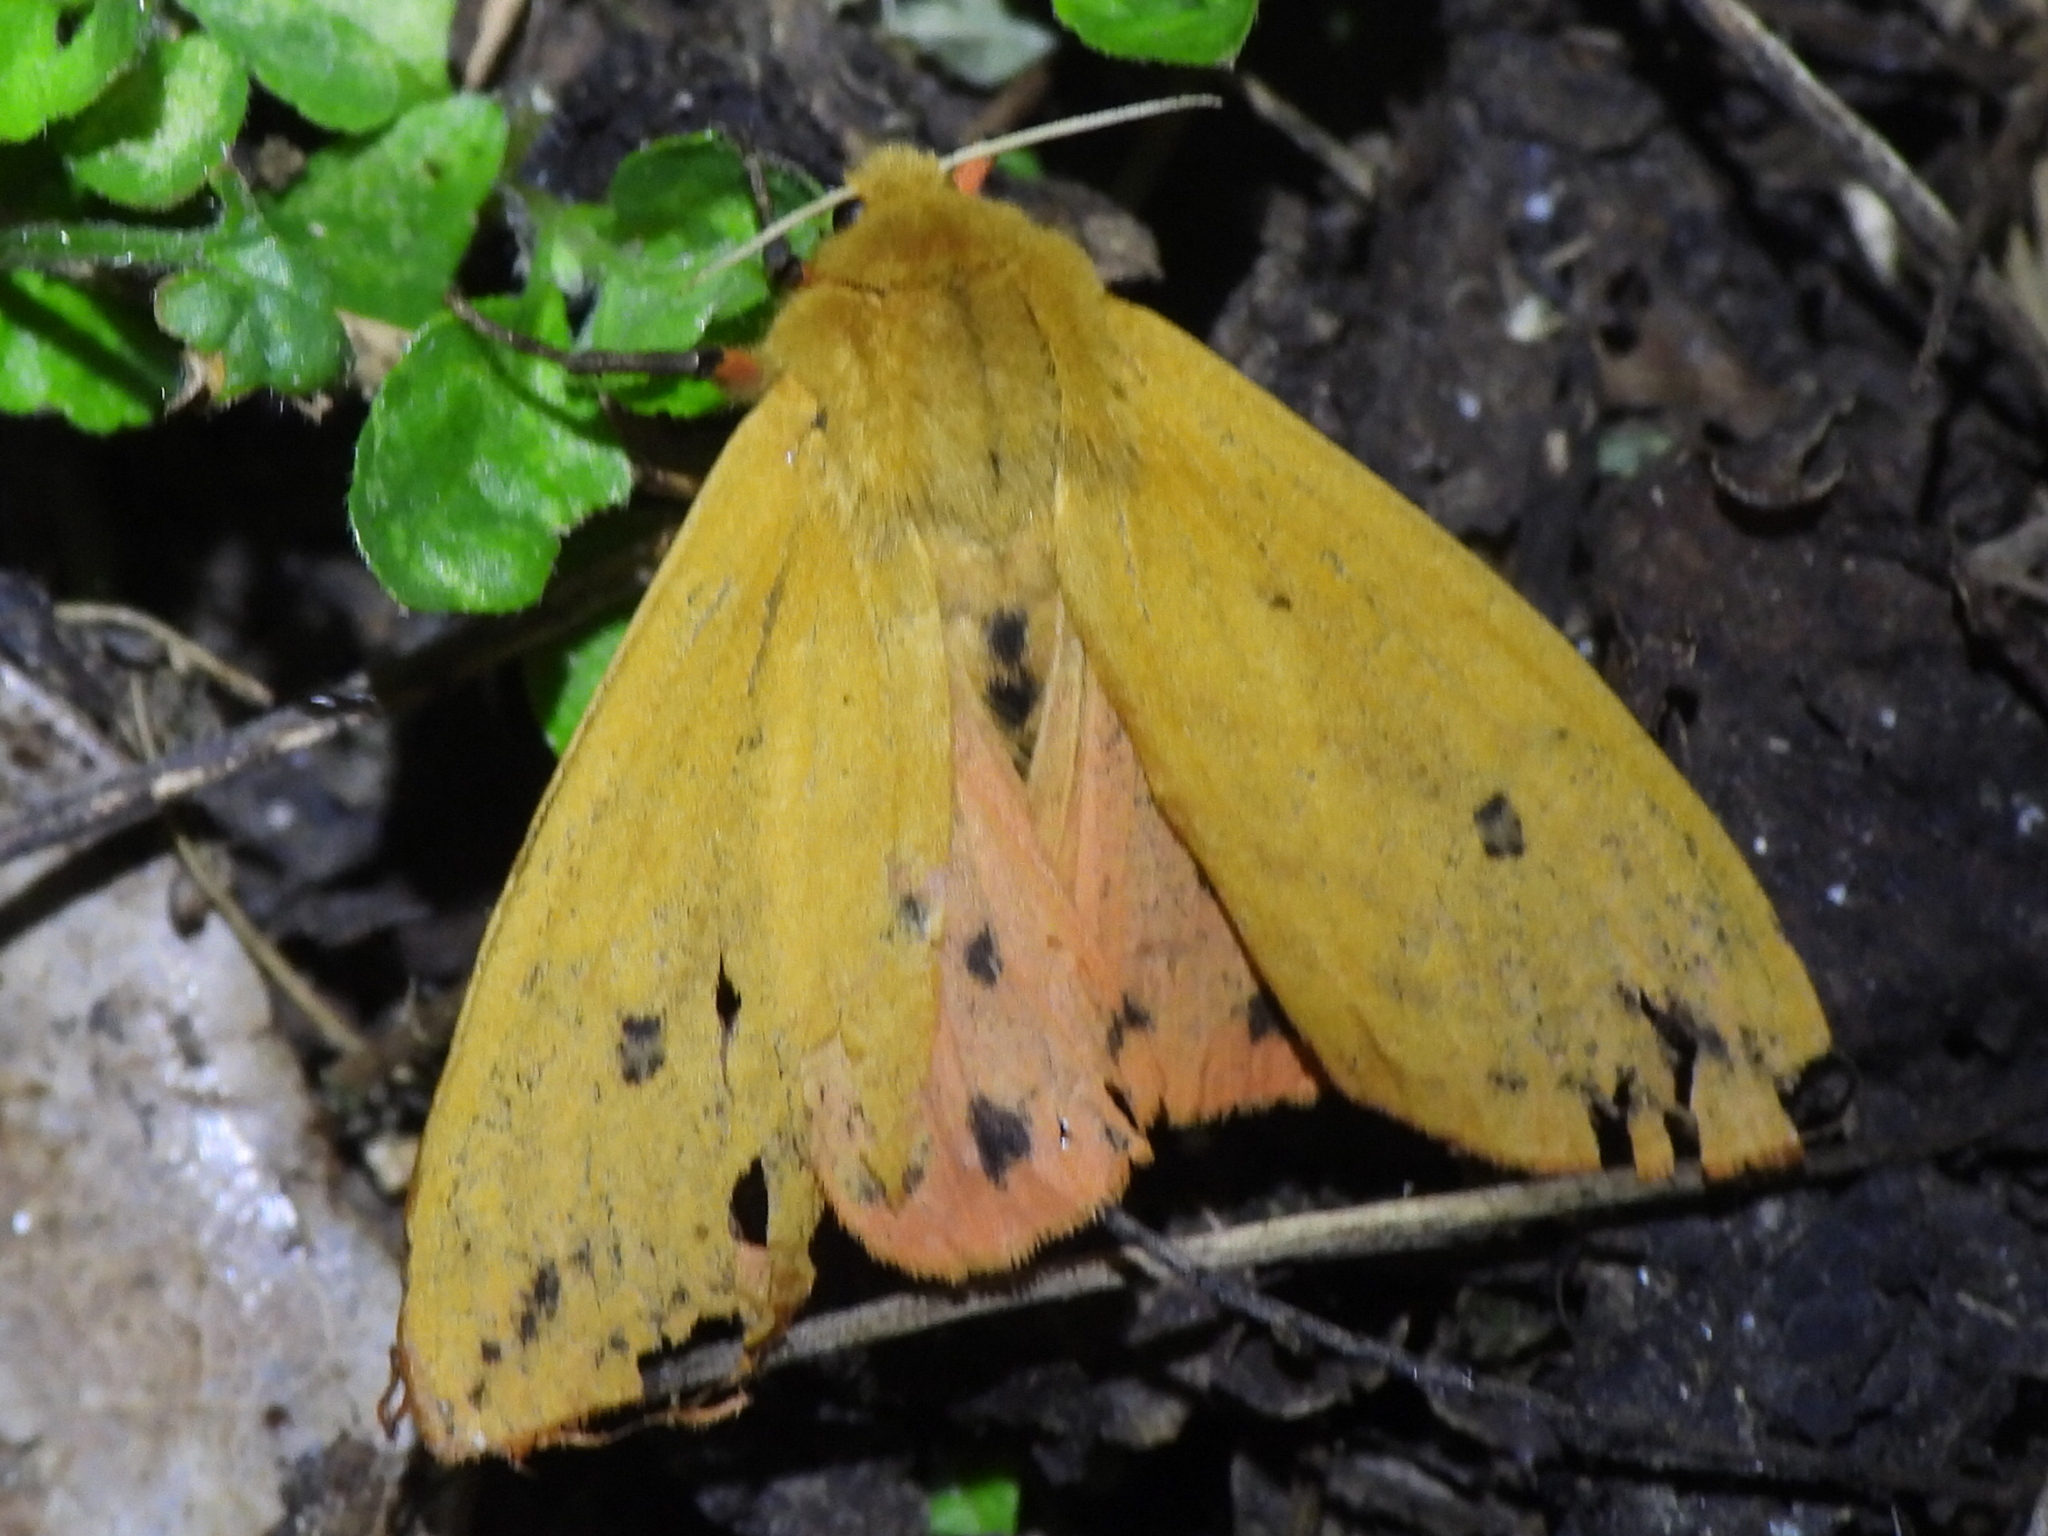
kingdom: Animalia
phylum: Arthropoda
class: Insecta
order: Lepidoptera
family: Erebidae
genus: Pyrrharctia
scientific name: Pyrrharctia isabella
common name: Isabella tiger moth
